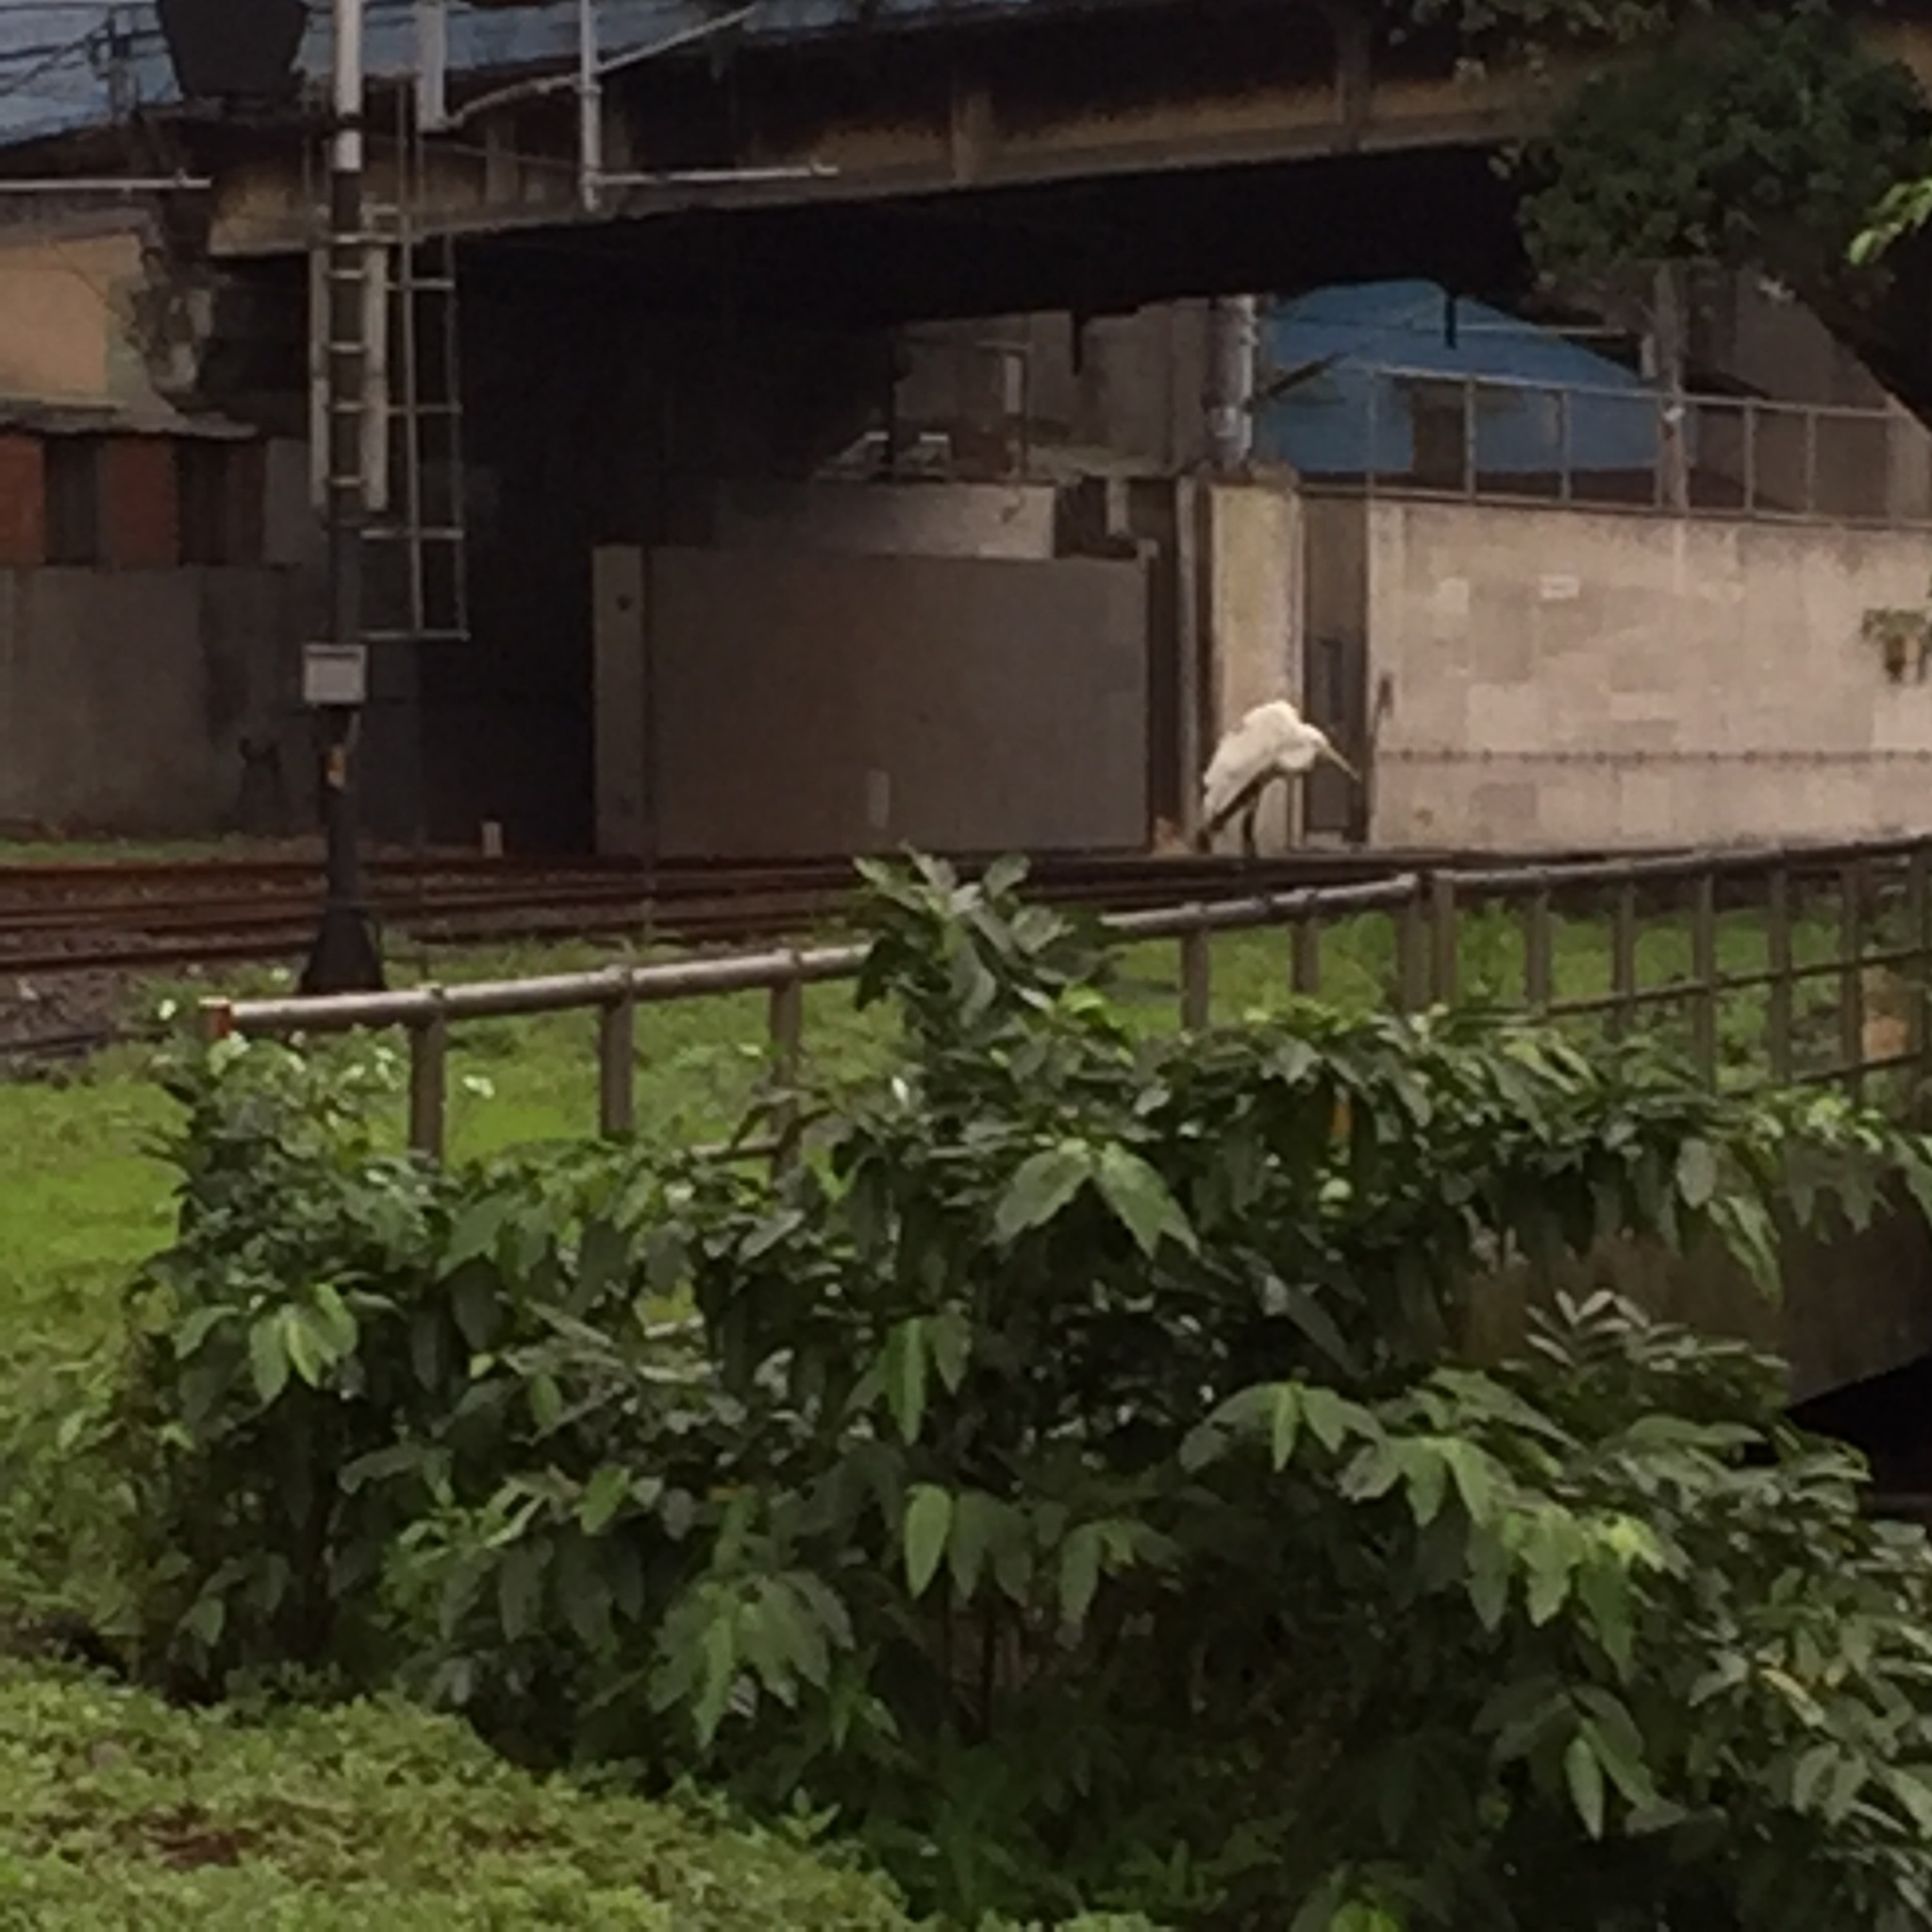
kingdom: Animalia
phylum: Chordata
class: Aves
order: Pelecaniformes
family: Ardeidae
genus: Ardea
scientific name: Ardea alba
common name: Great egret
